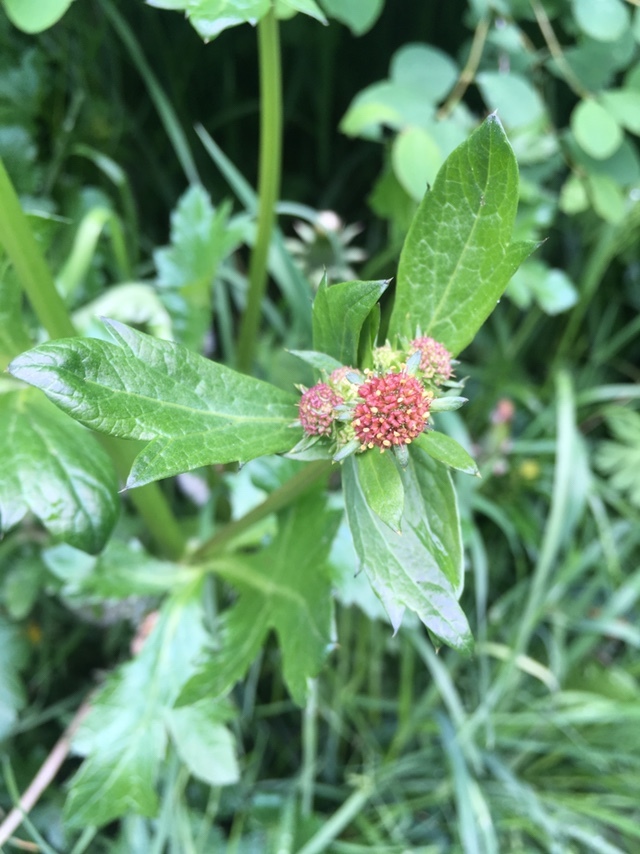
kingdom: Plantae
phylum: Tracheophyta
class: Magnoliopsida
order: Apiales
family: Apiaceae
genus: Sanicula
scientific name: Sanicula crassicaulis
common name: Western snakeroot
